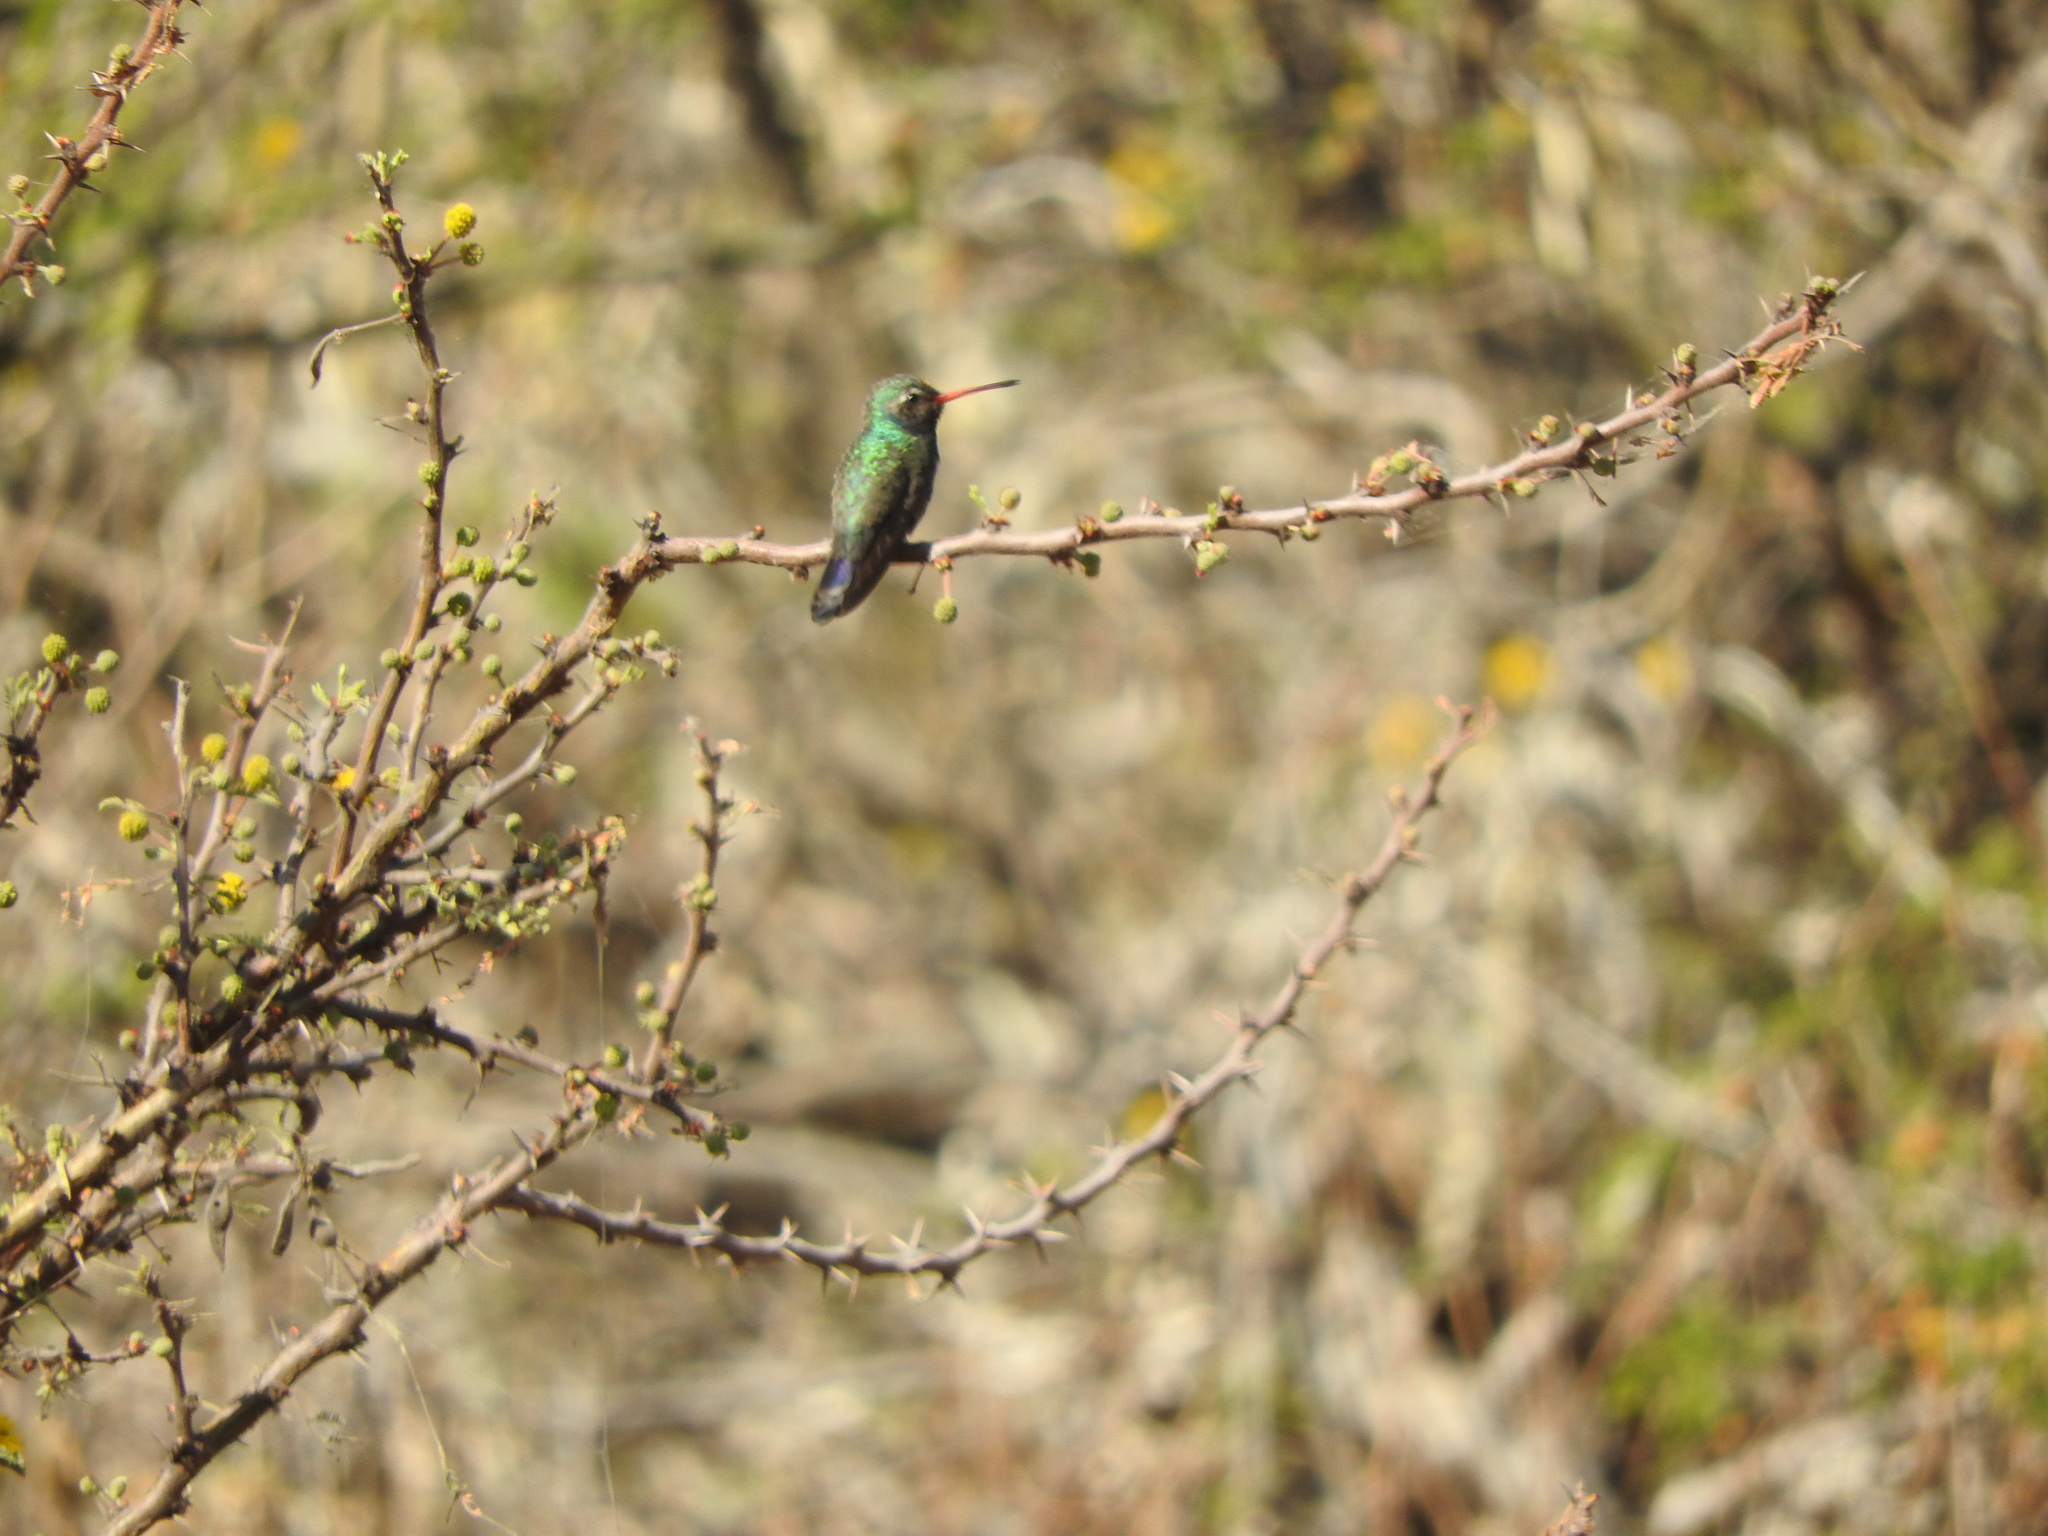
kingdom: Animalia
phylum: Chordata
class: Aves
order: Apodiformes
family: Trochilidae
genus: Cynanthus
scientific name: Cynanthus latirostris
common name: Broad-billed hummingbird
